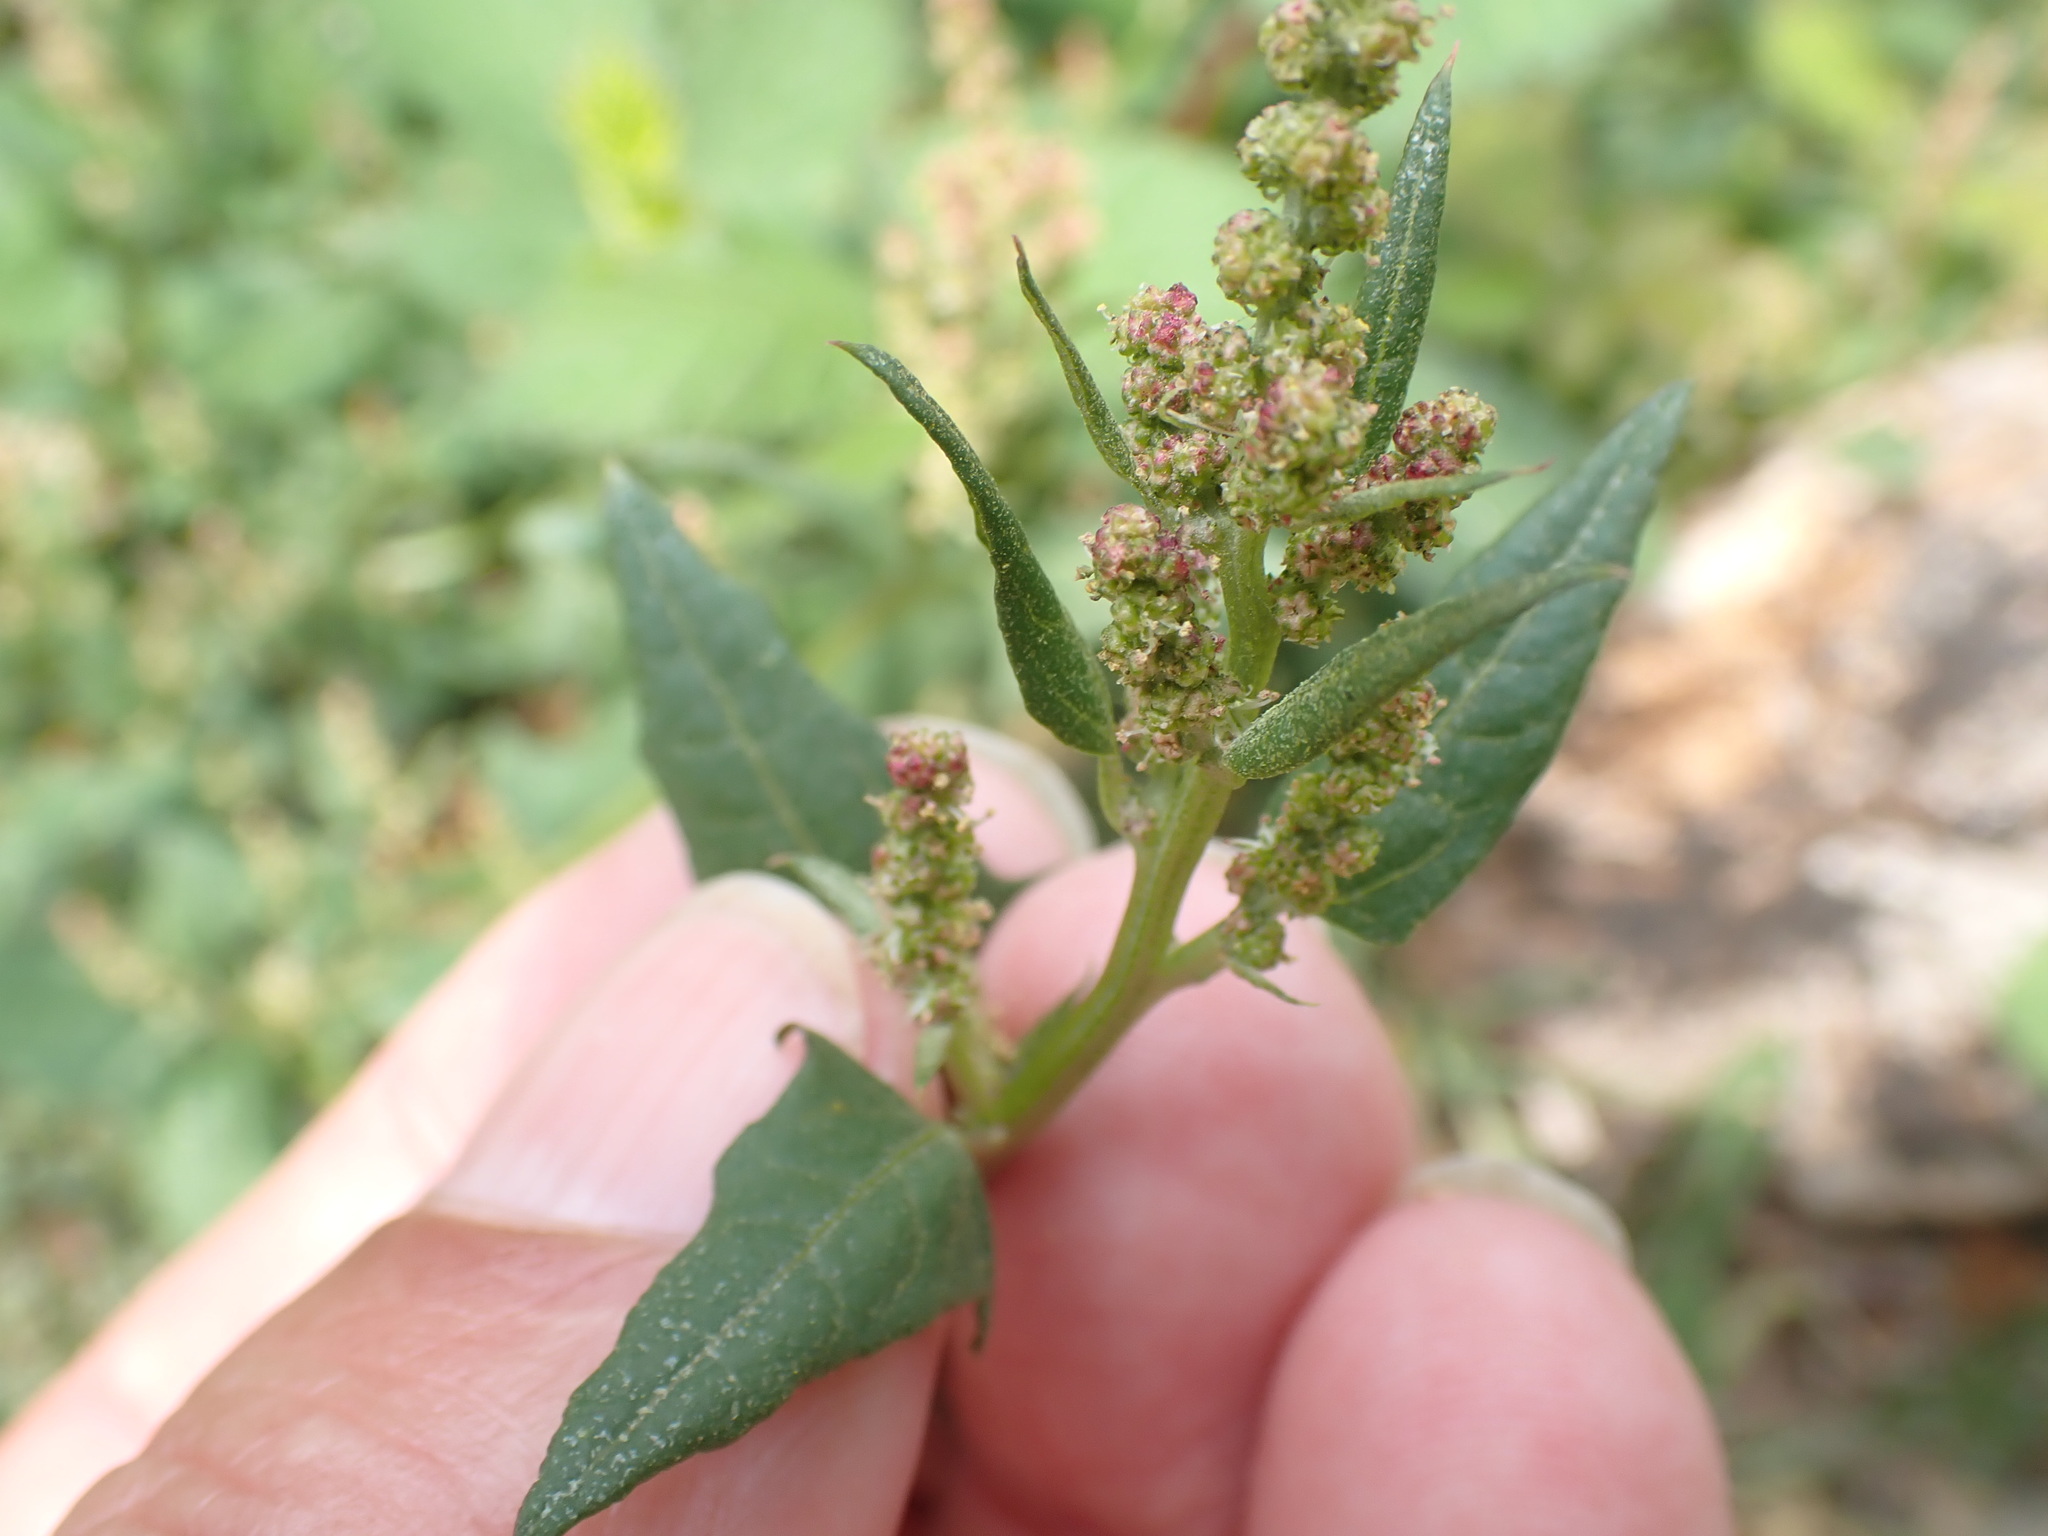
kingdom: Plantae
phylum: Tracheophyta
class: Magnoliopsida
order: Caryophyllales
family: Amaranthaceae
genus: Atriplex
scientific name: Atriplex prostrata
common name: Spear-leaved orache
